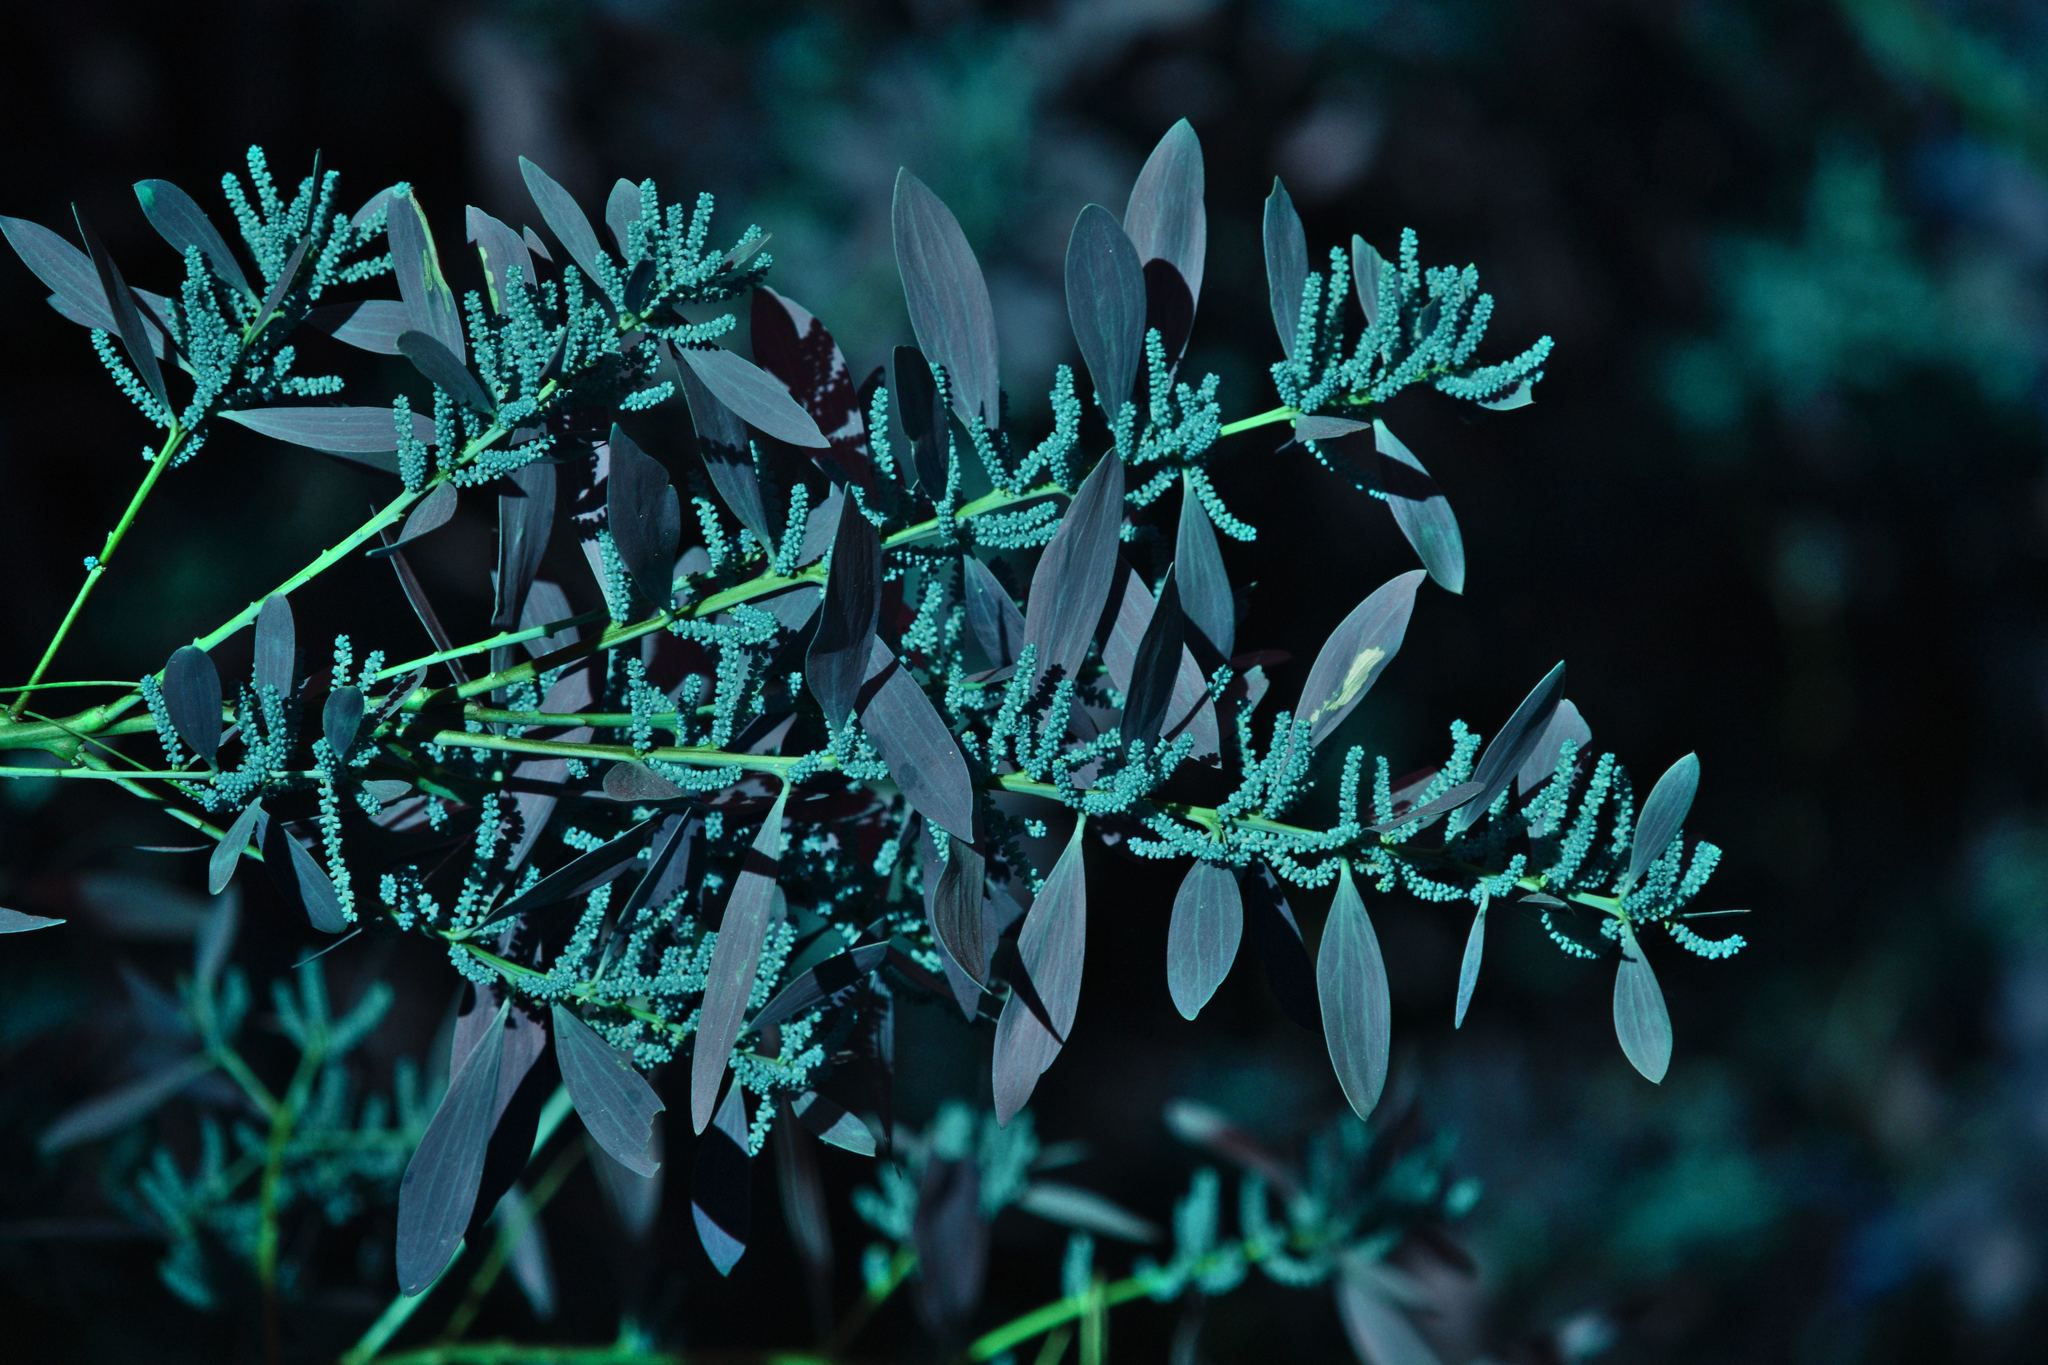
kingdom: Plantae
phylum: Tracheophyta
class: Magnoliopsida
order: Fabales
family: Fabaceae
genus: Acacia
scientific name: Acacia longifolia
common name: Sydney golden wattle
